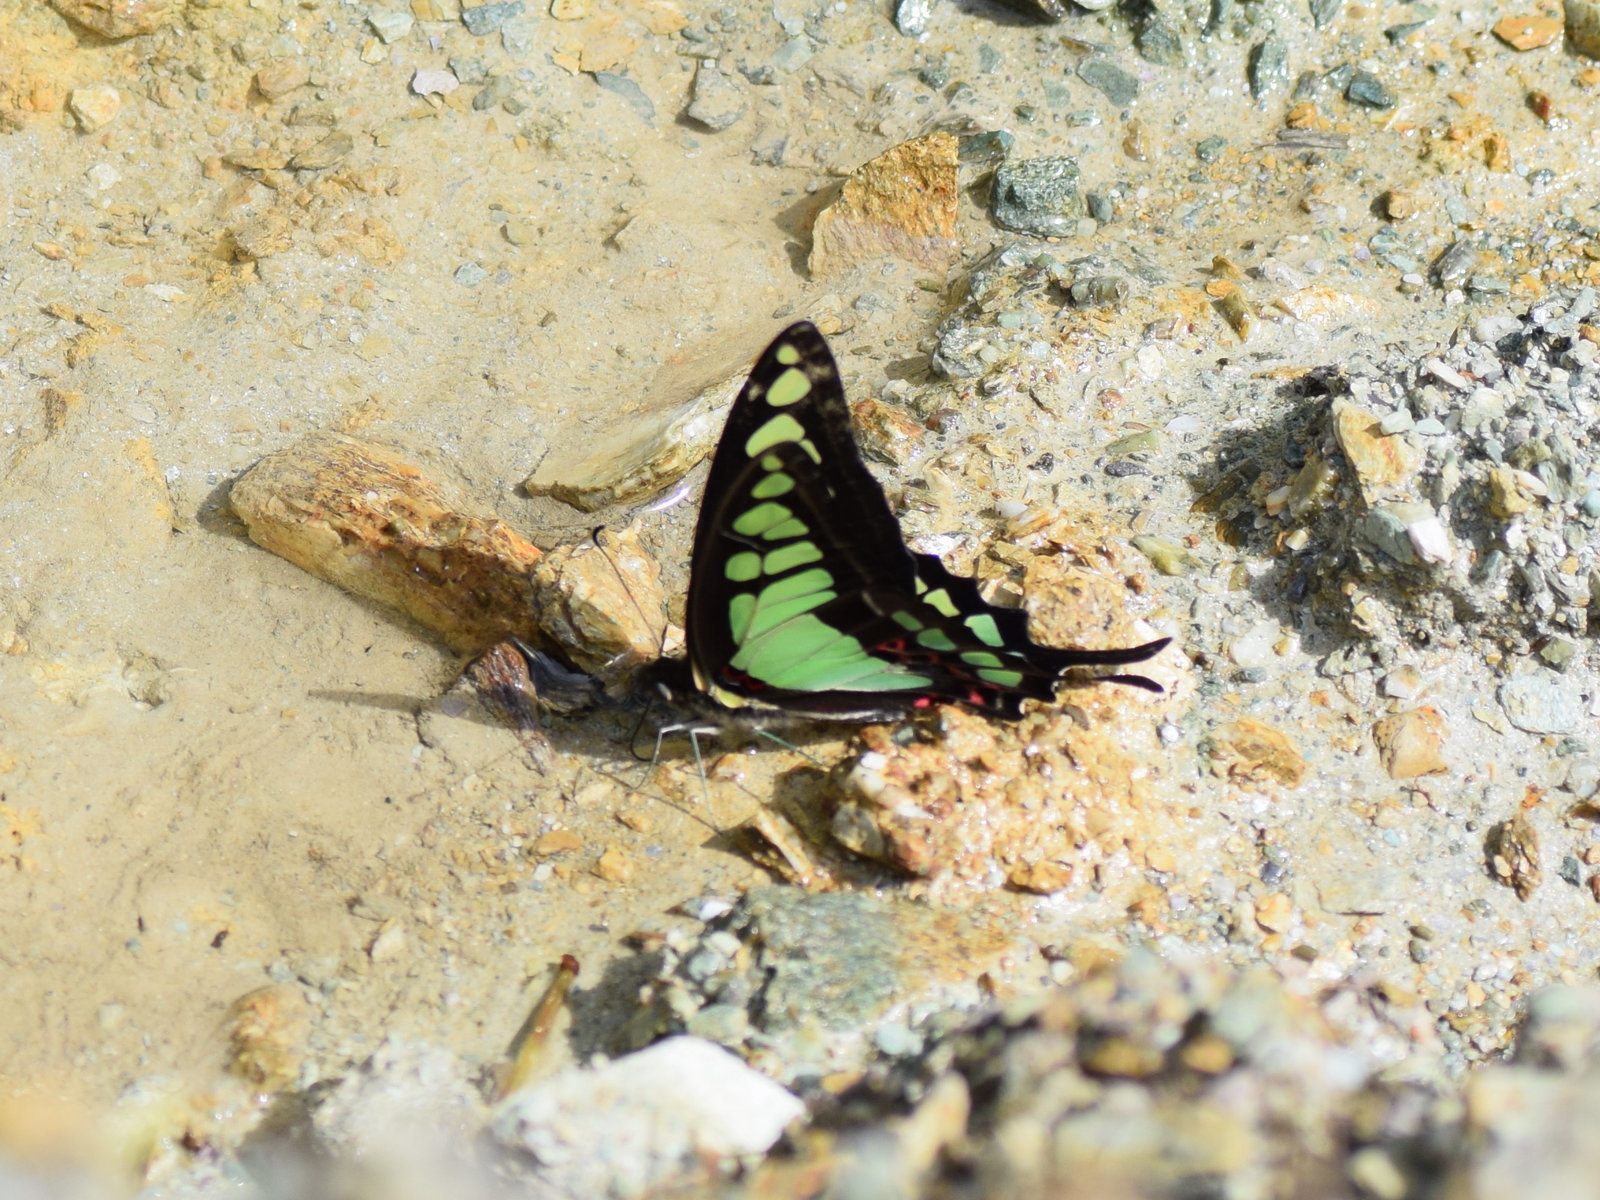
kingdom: Animalia
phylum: Arthropoda
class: Insecta
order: Lepidoptera
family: Papilionidae
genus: Graphium
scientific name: Graphium cloanthus
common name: Glassy bluebottle
